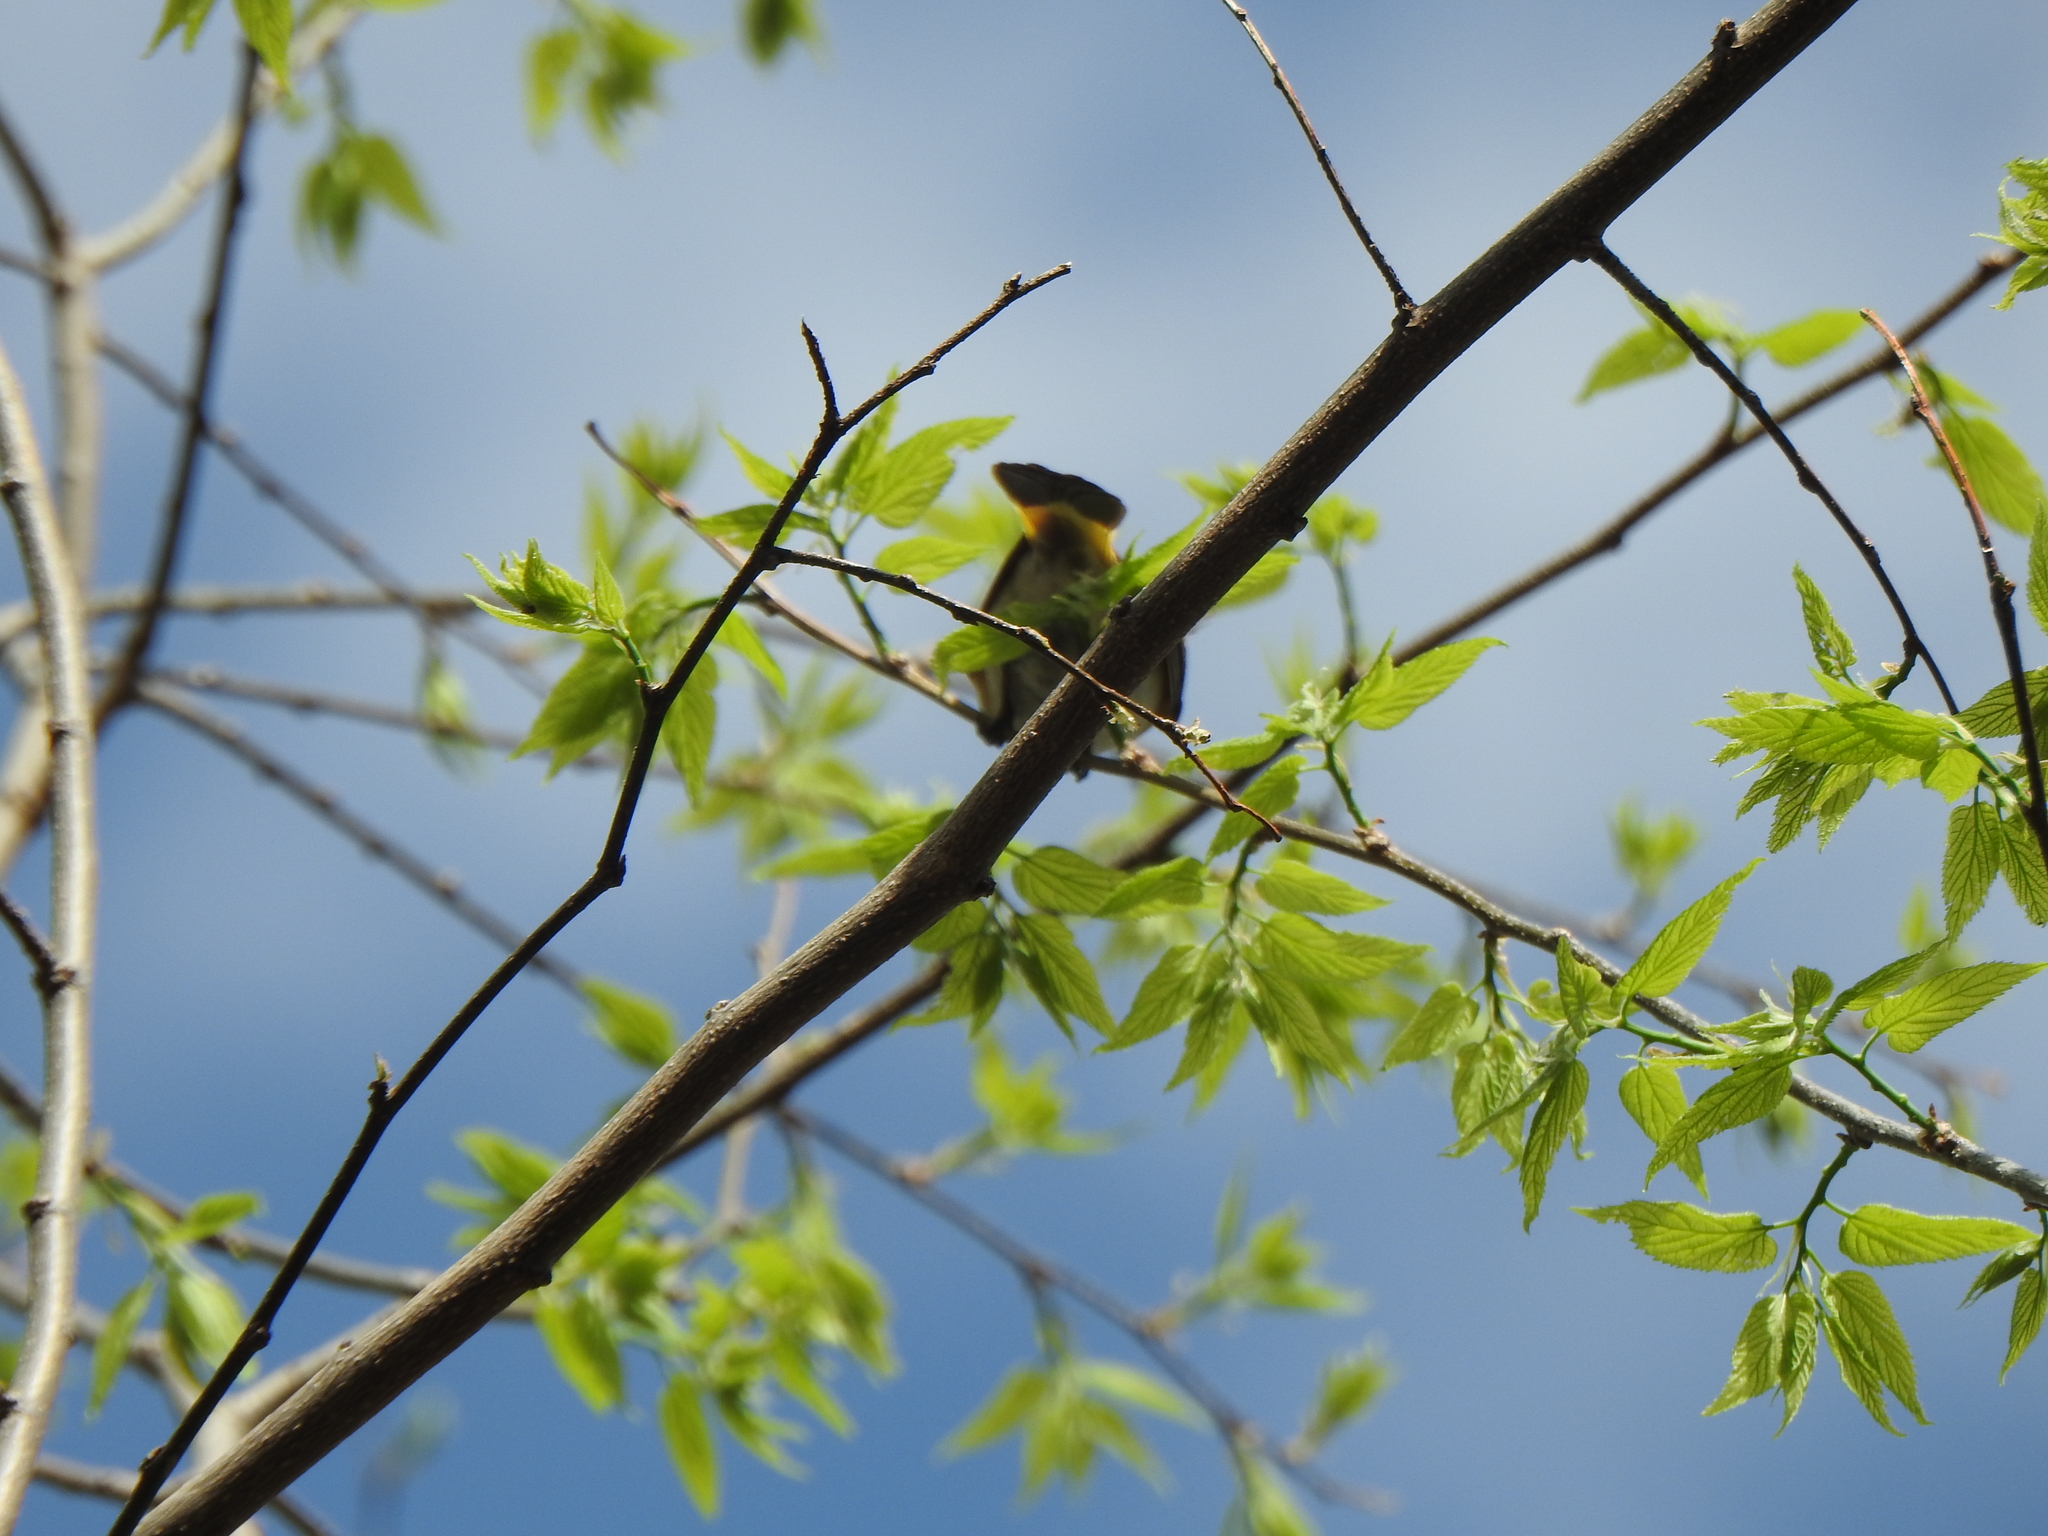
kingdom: Animalia
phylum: Chordata
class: Aves
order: Passeriformes
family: Parulidae
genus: Setophaga
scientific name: Setophaga ruticilla
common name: American redstart
